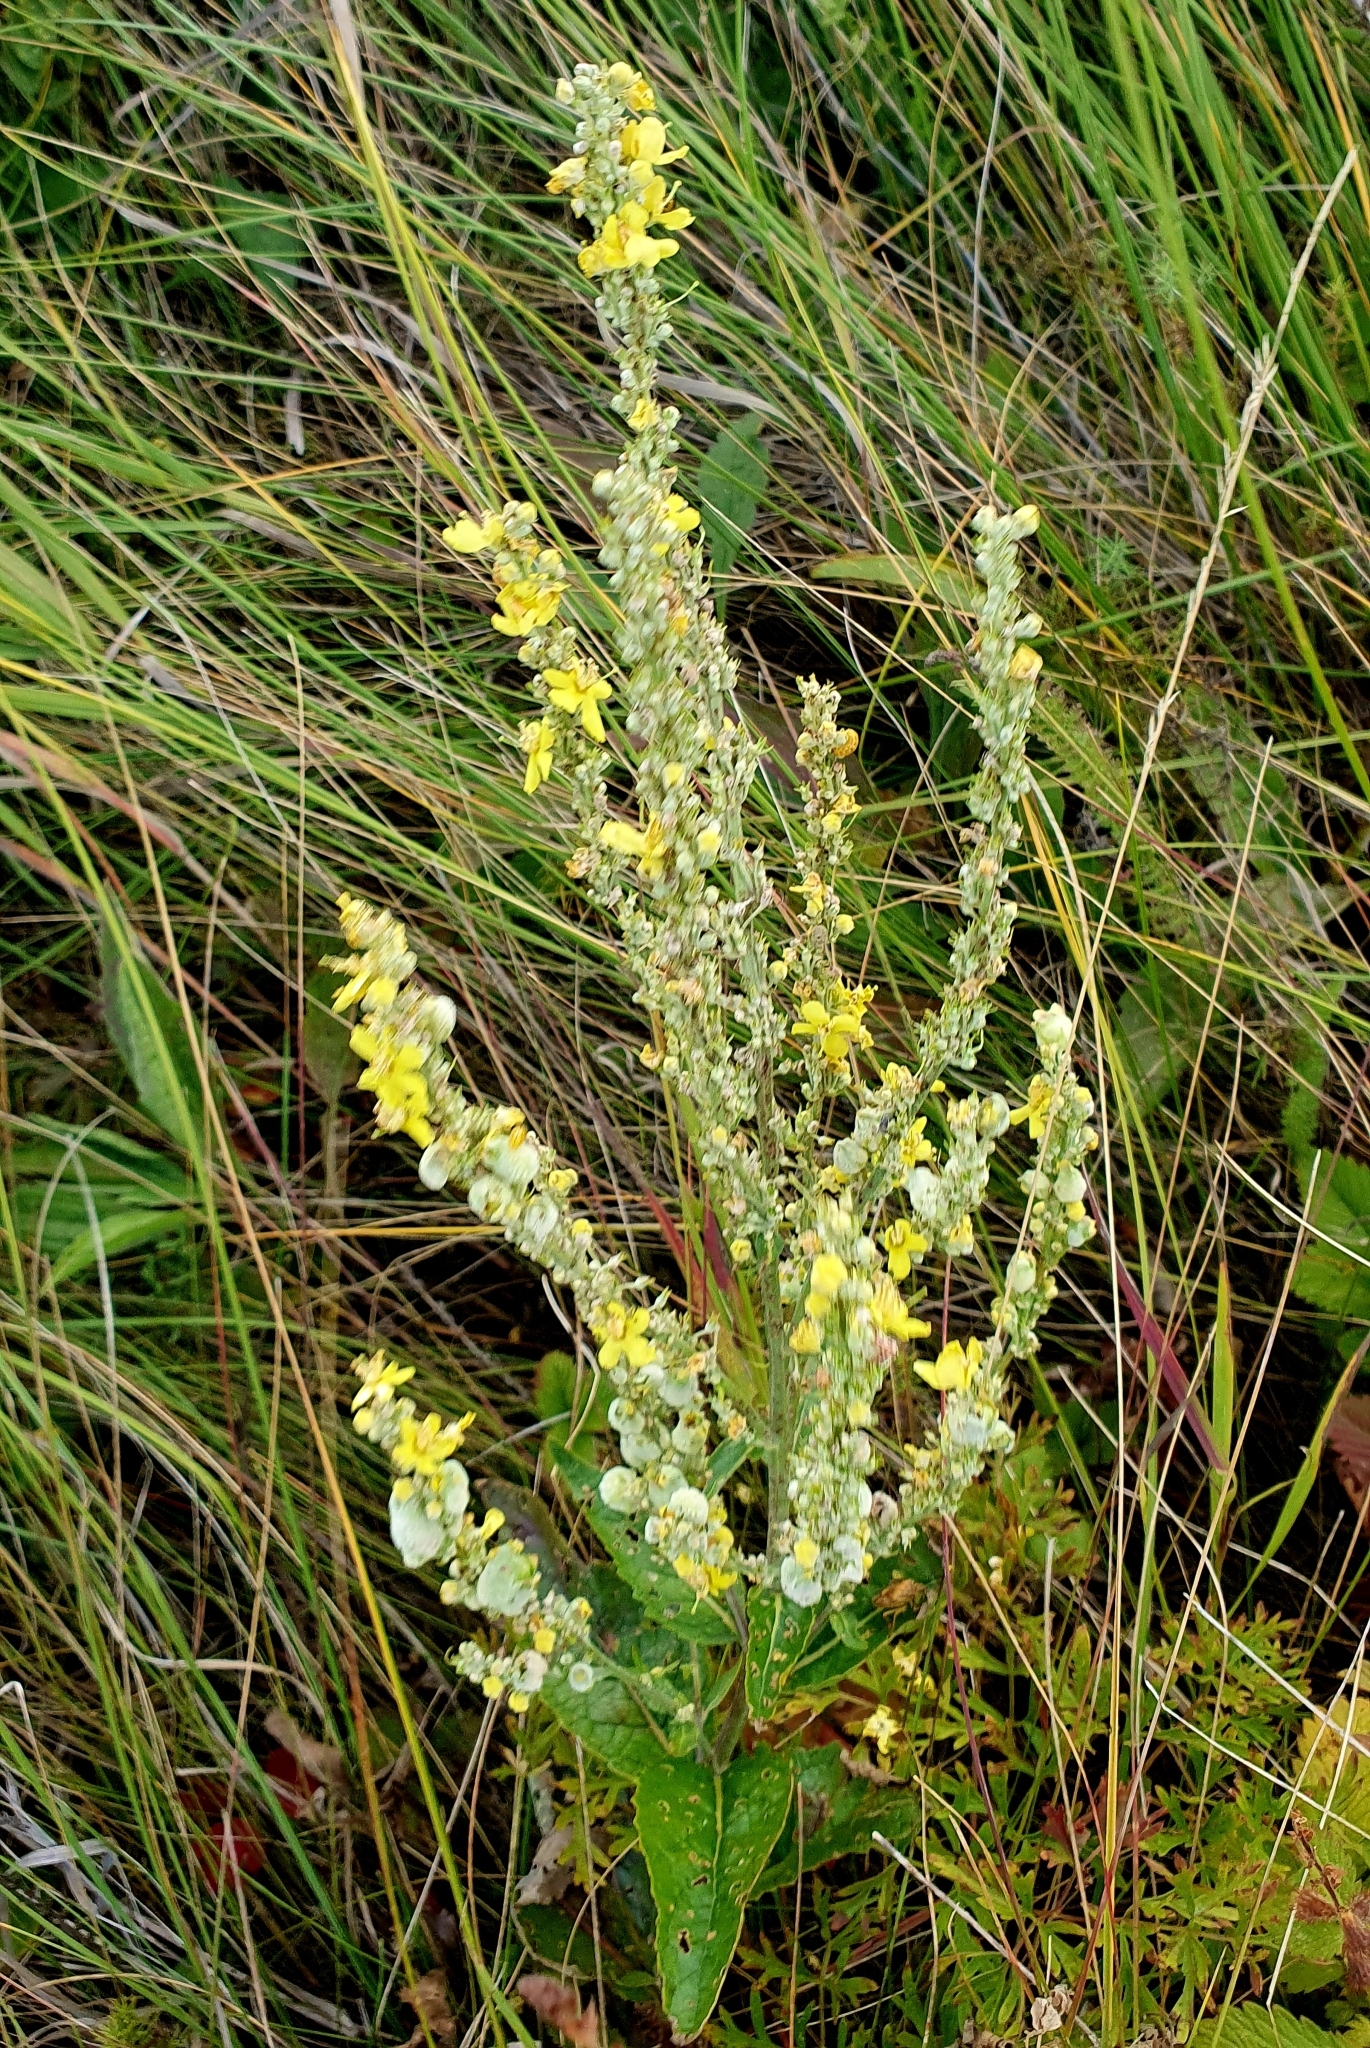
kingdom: Plantae
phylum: Tracheophyta
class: Magnoliopsida
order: Lamiales
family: Scrophulariaceae
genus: Verbascum
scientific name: Verbascum lychnitis
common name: White mullein
